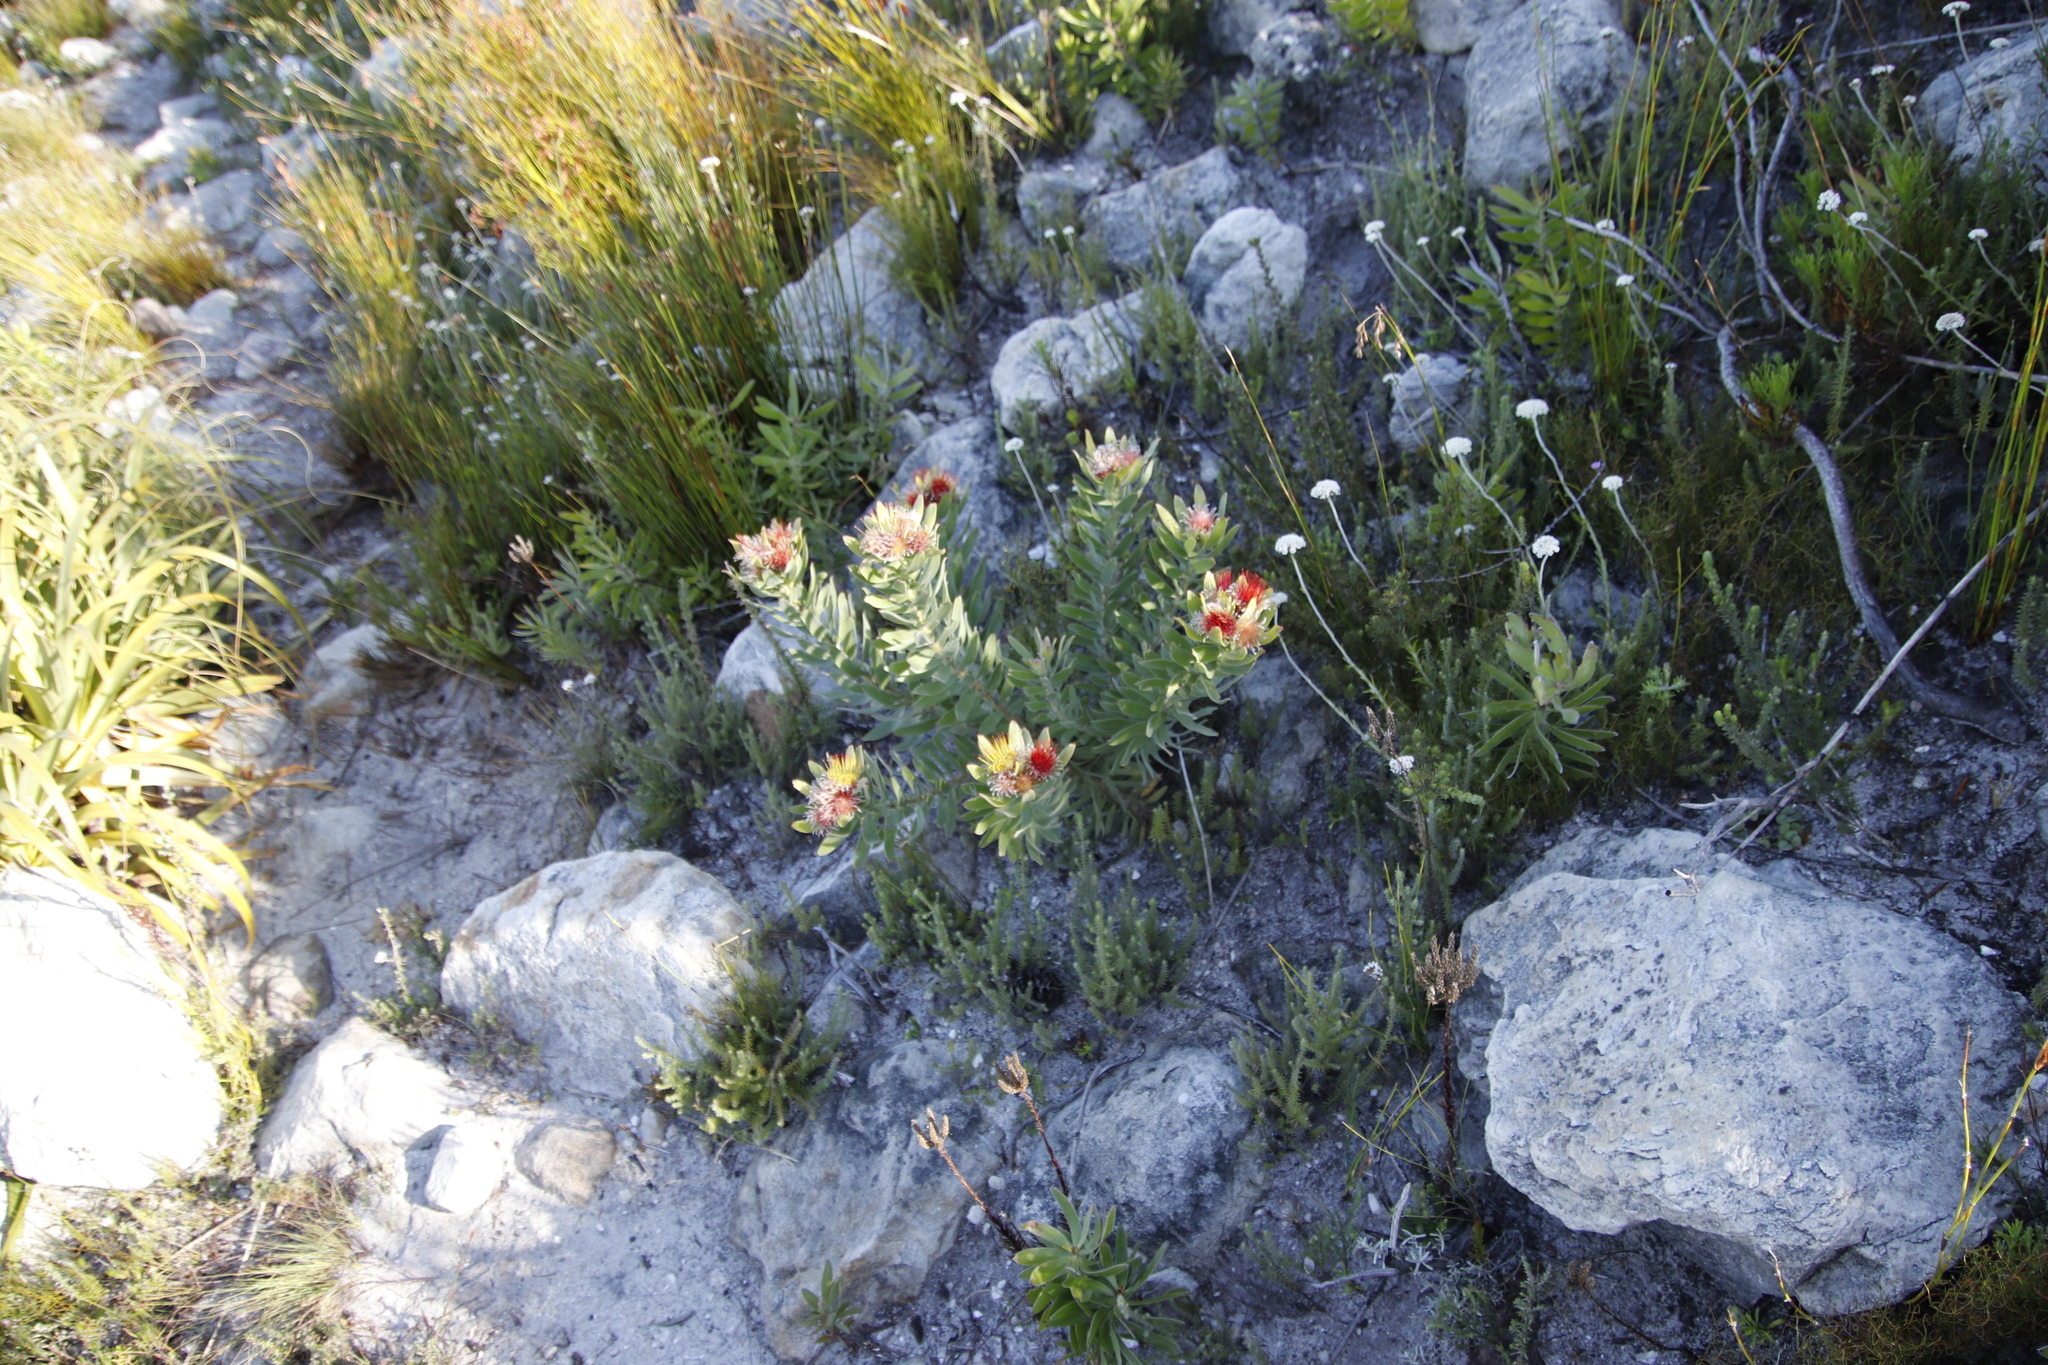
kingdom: Plantae
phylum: Tracheophyta
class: Magnoliopsida
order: Proteales
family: Proteaceae
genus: Leucospermum
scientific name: Leucospermum oleifolium
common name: Matches
